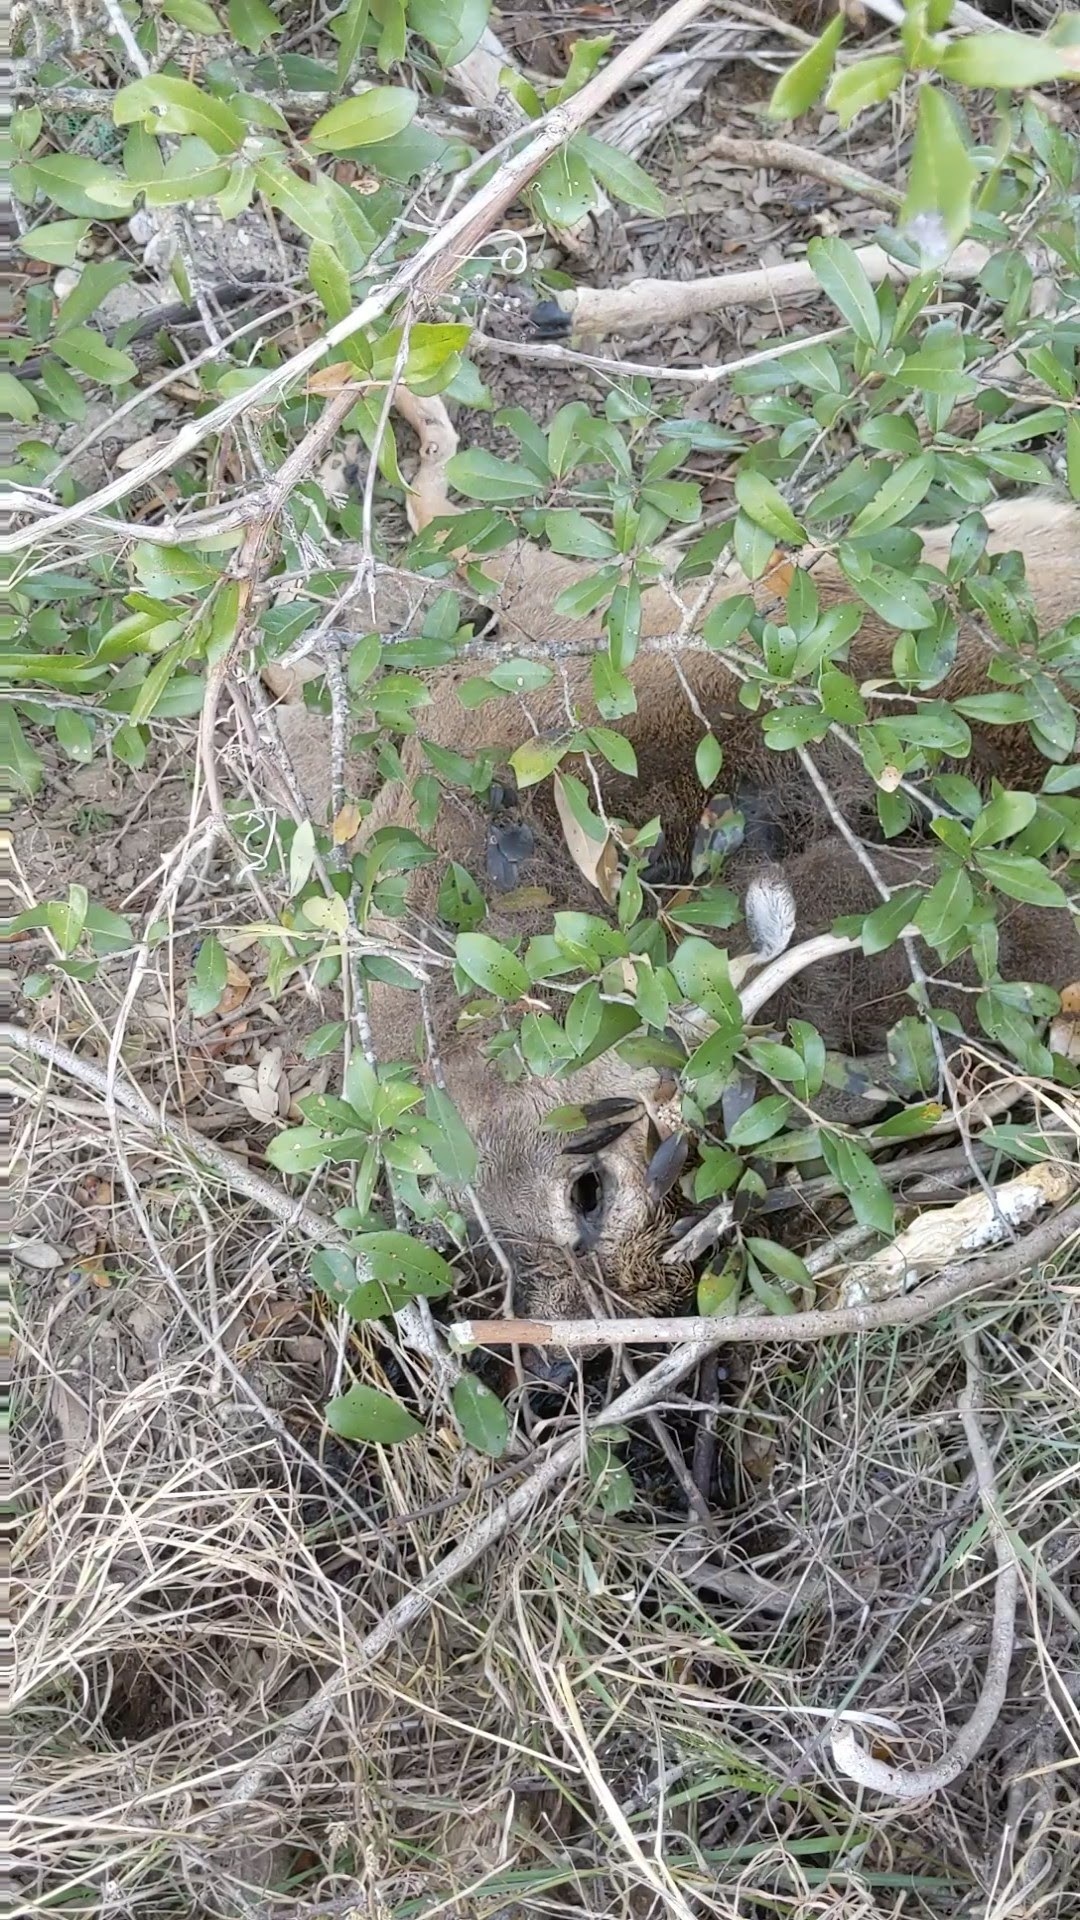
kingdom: Animalia
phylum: Chordata
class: Mammalia
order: Artiodactyla
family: Cervidae
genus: Odocoileus
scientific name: Odocoileus virginianus
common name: White-tailed deer
